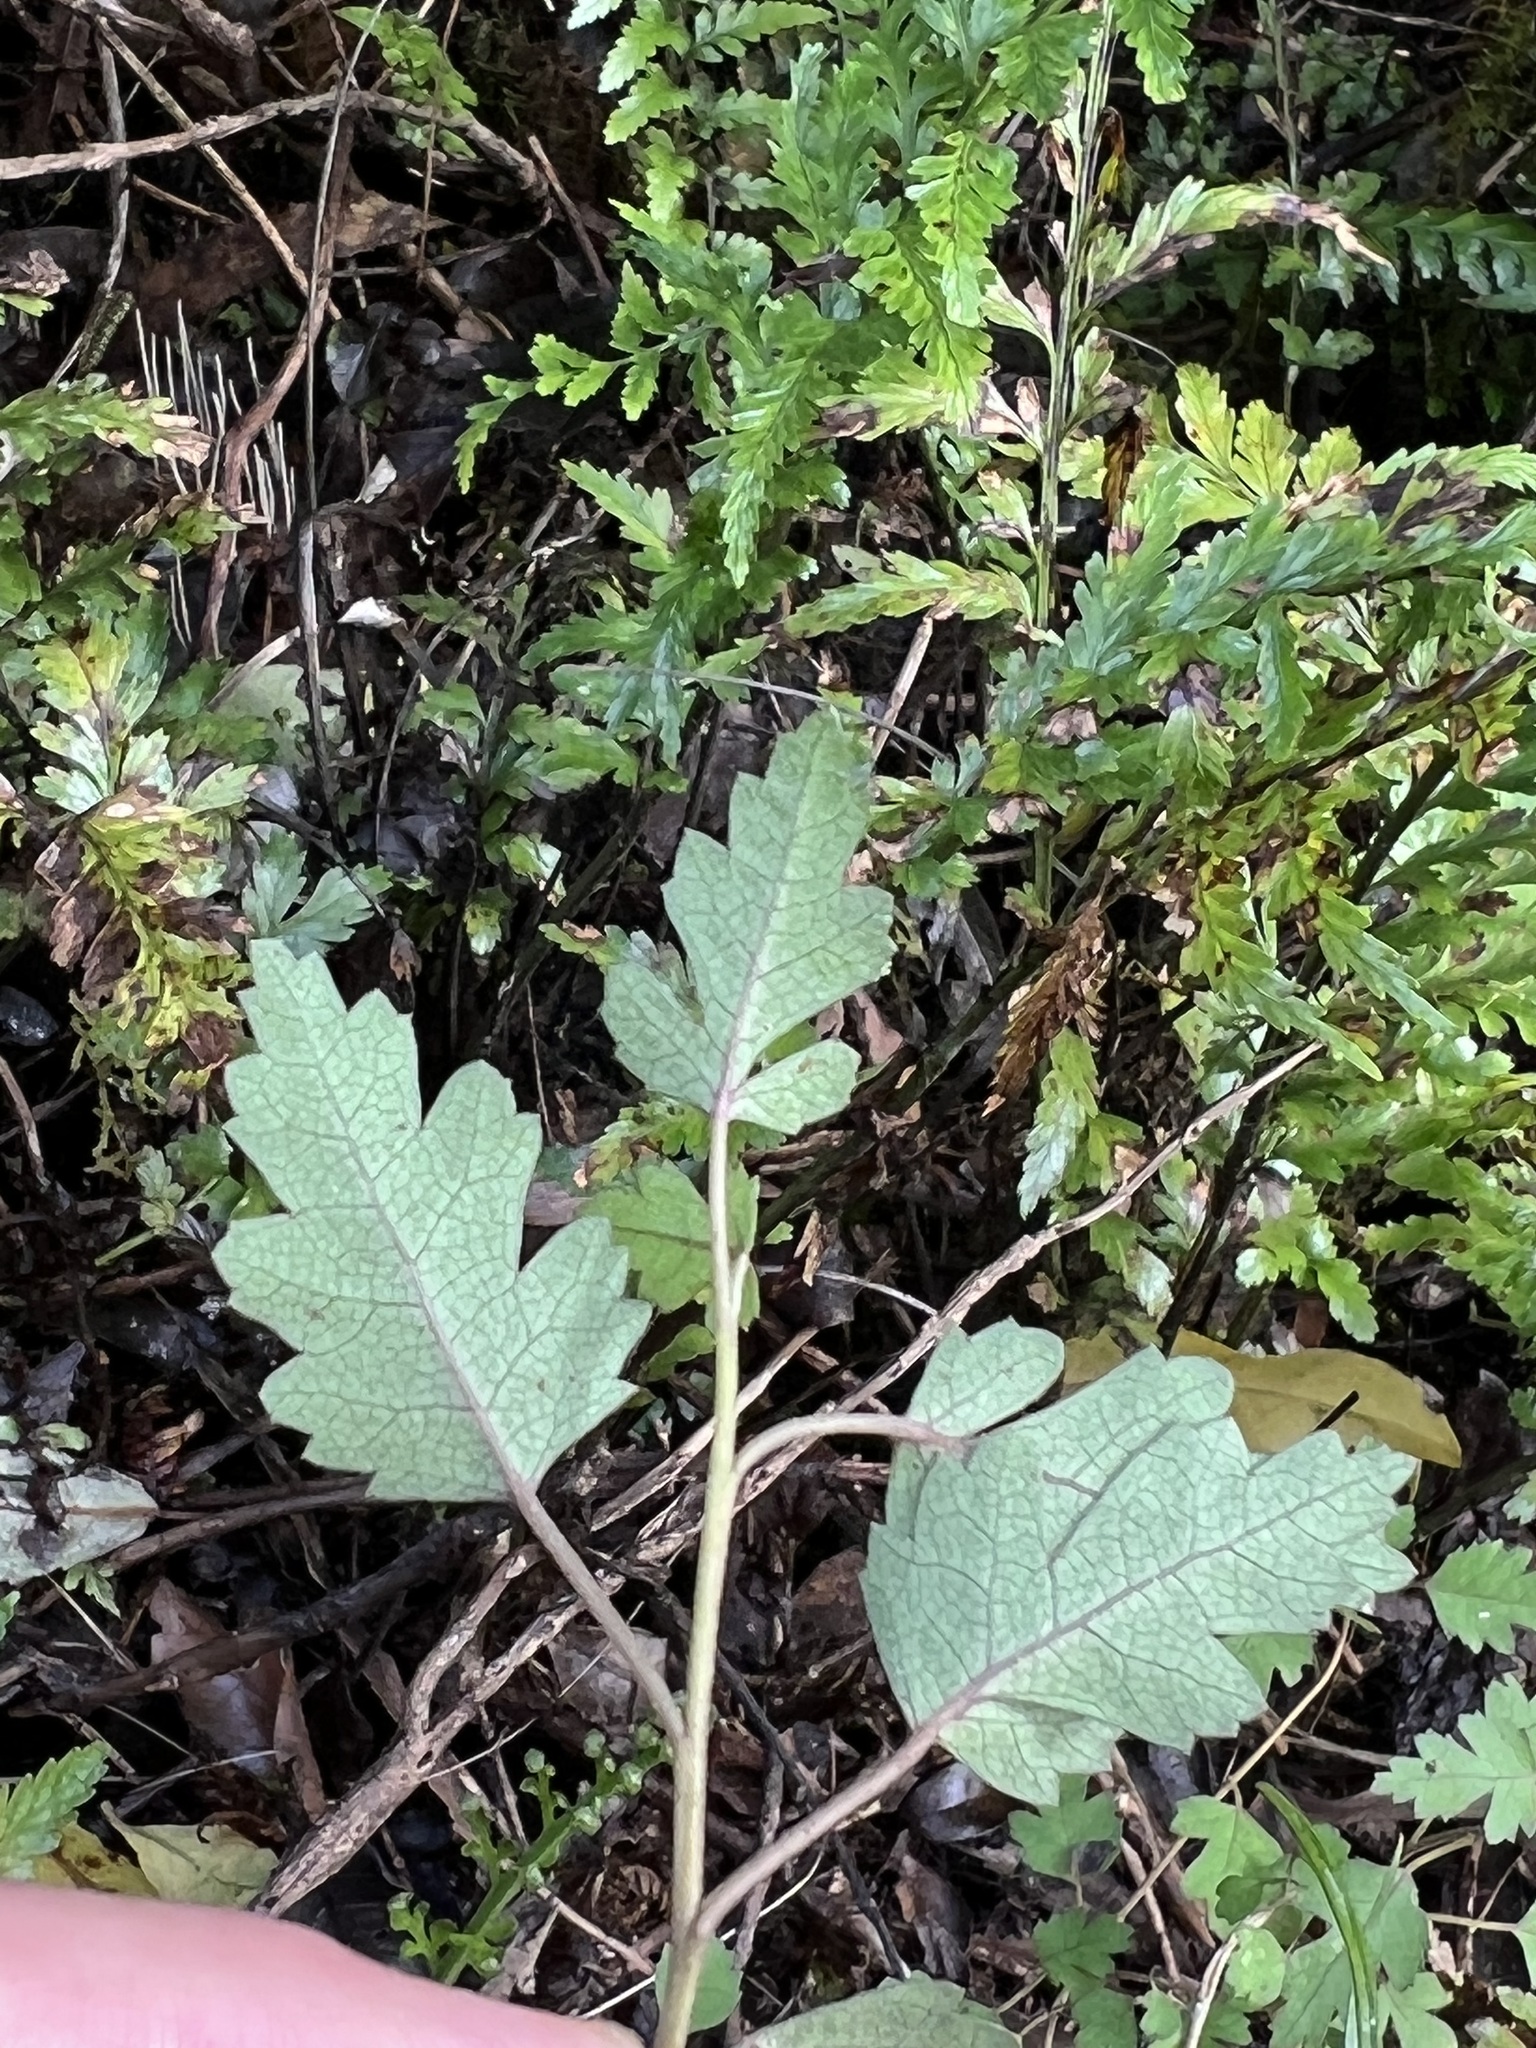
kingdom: Plantae
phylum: Tracheophyta
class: Magnoliopsida
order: Malvales
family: Malvaceae
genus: Hoheria
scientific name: Hoheria sexstylosa
